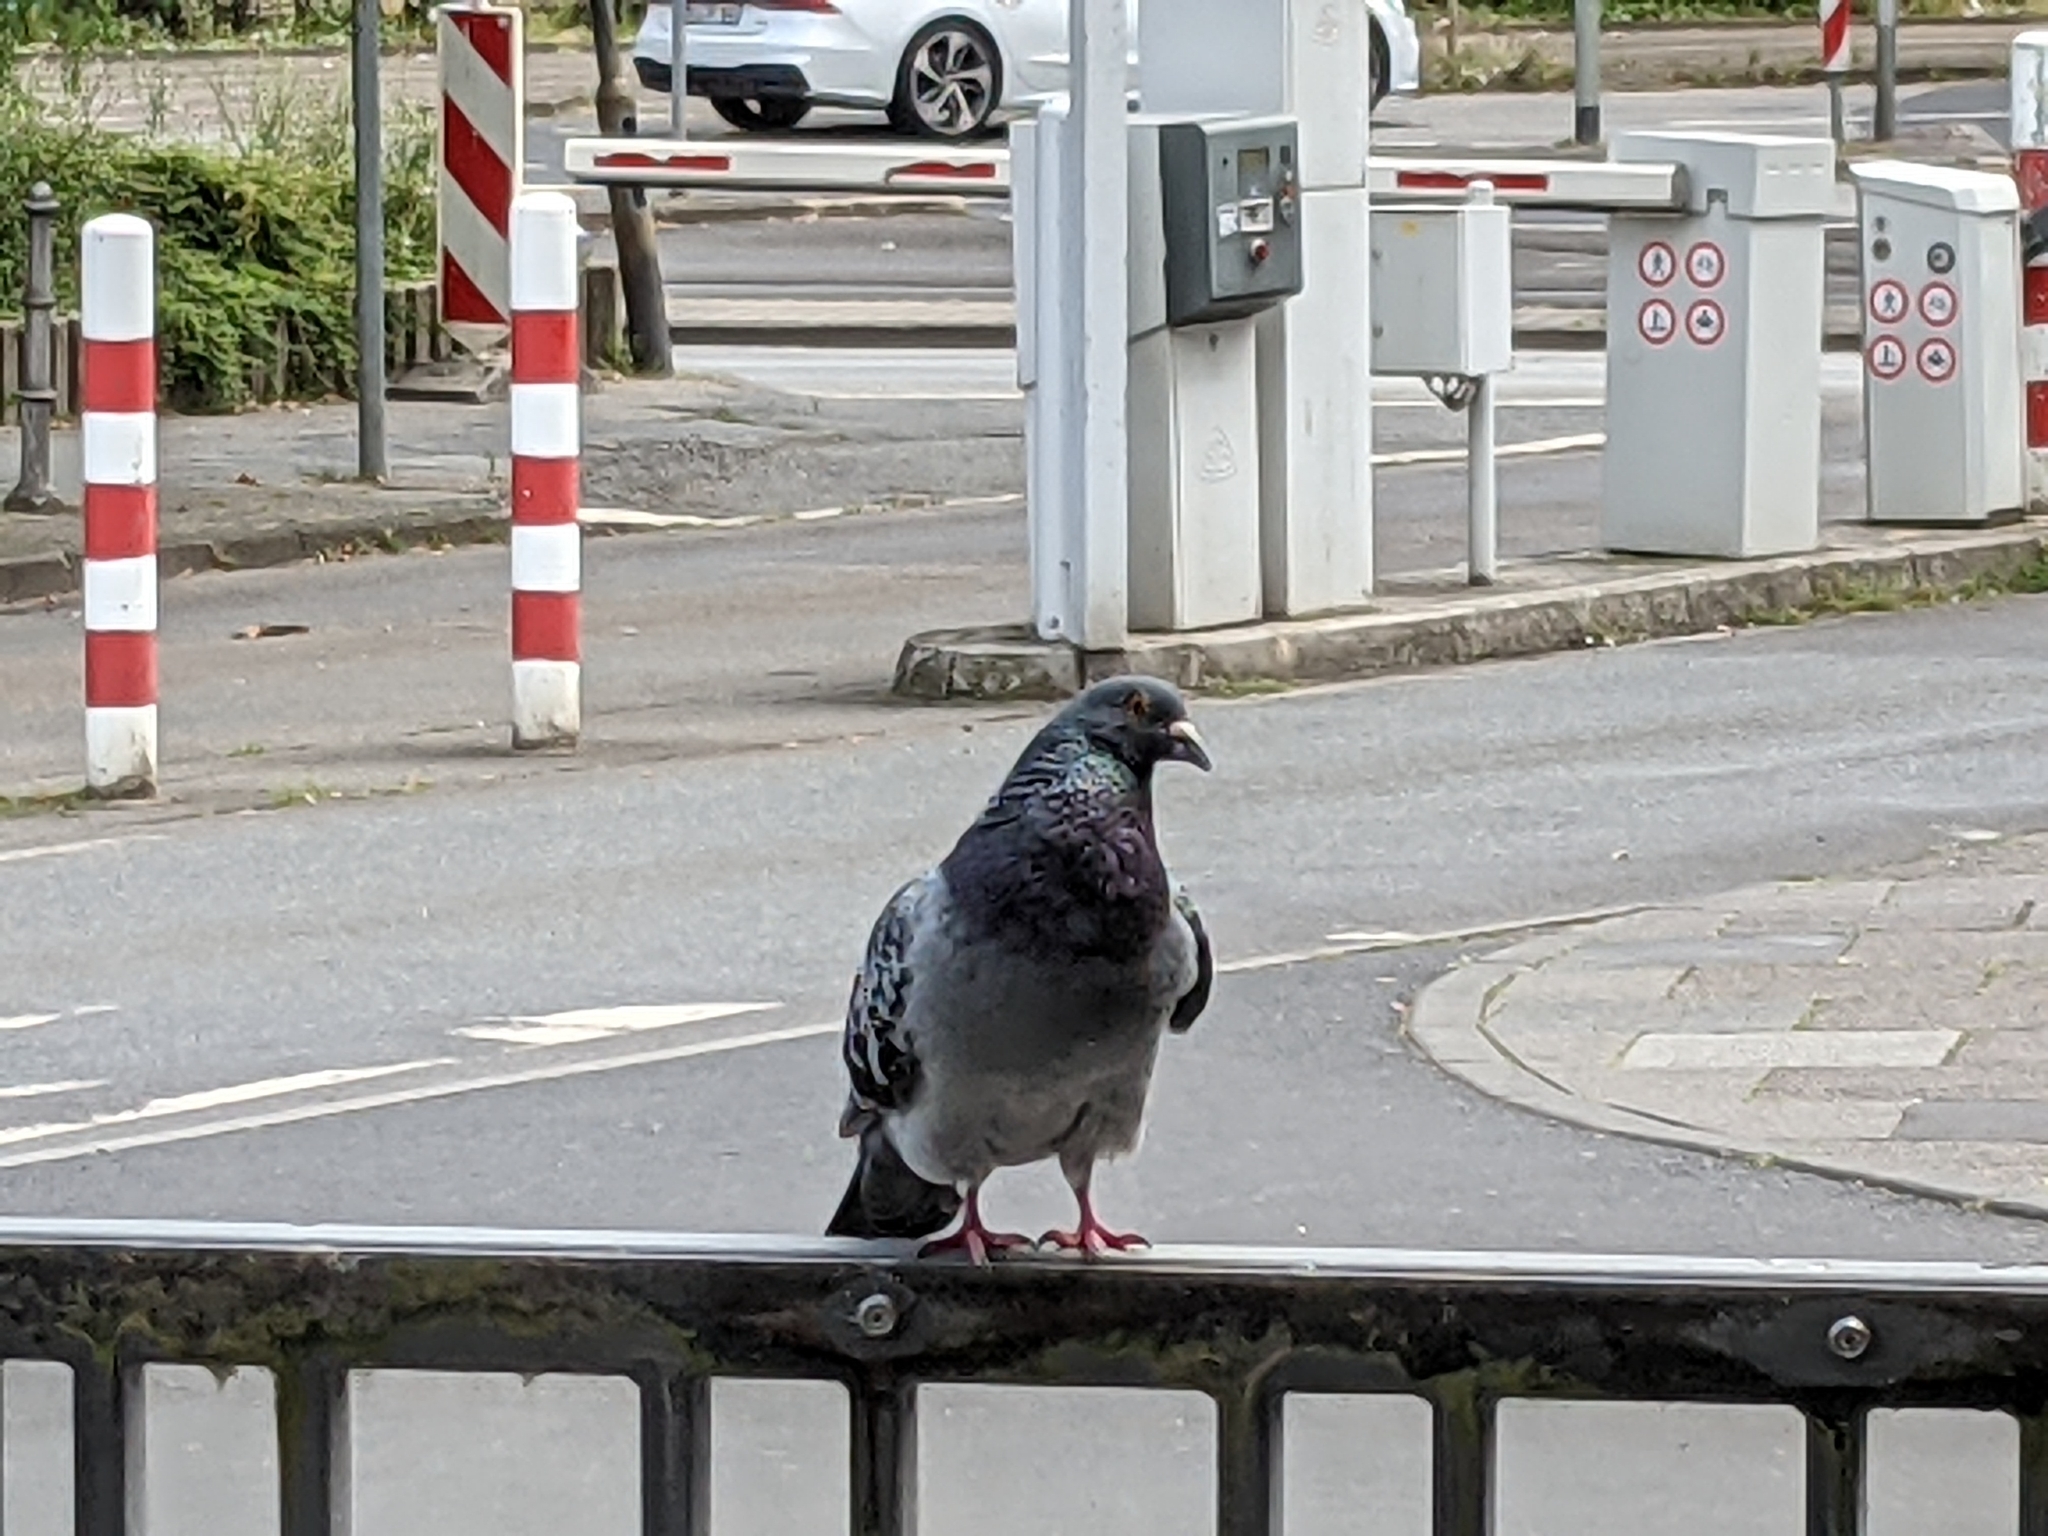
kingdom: Animalia
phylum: Chordata
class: Aves
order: Columbiformes
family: Columbidae
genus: Columba
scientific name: Columba livia
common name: Rock pigeon
